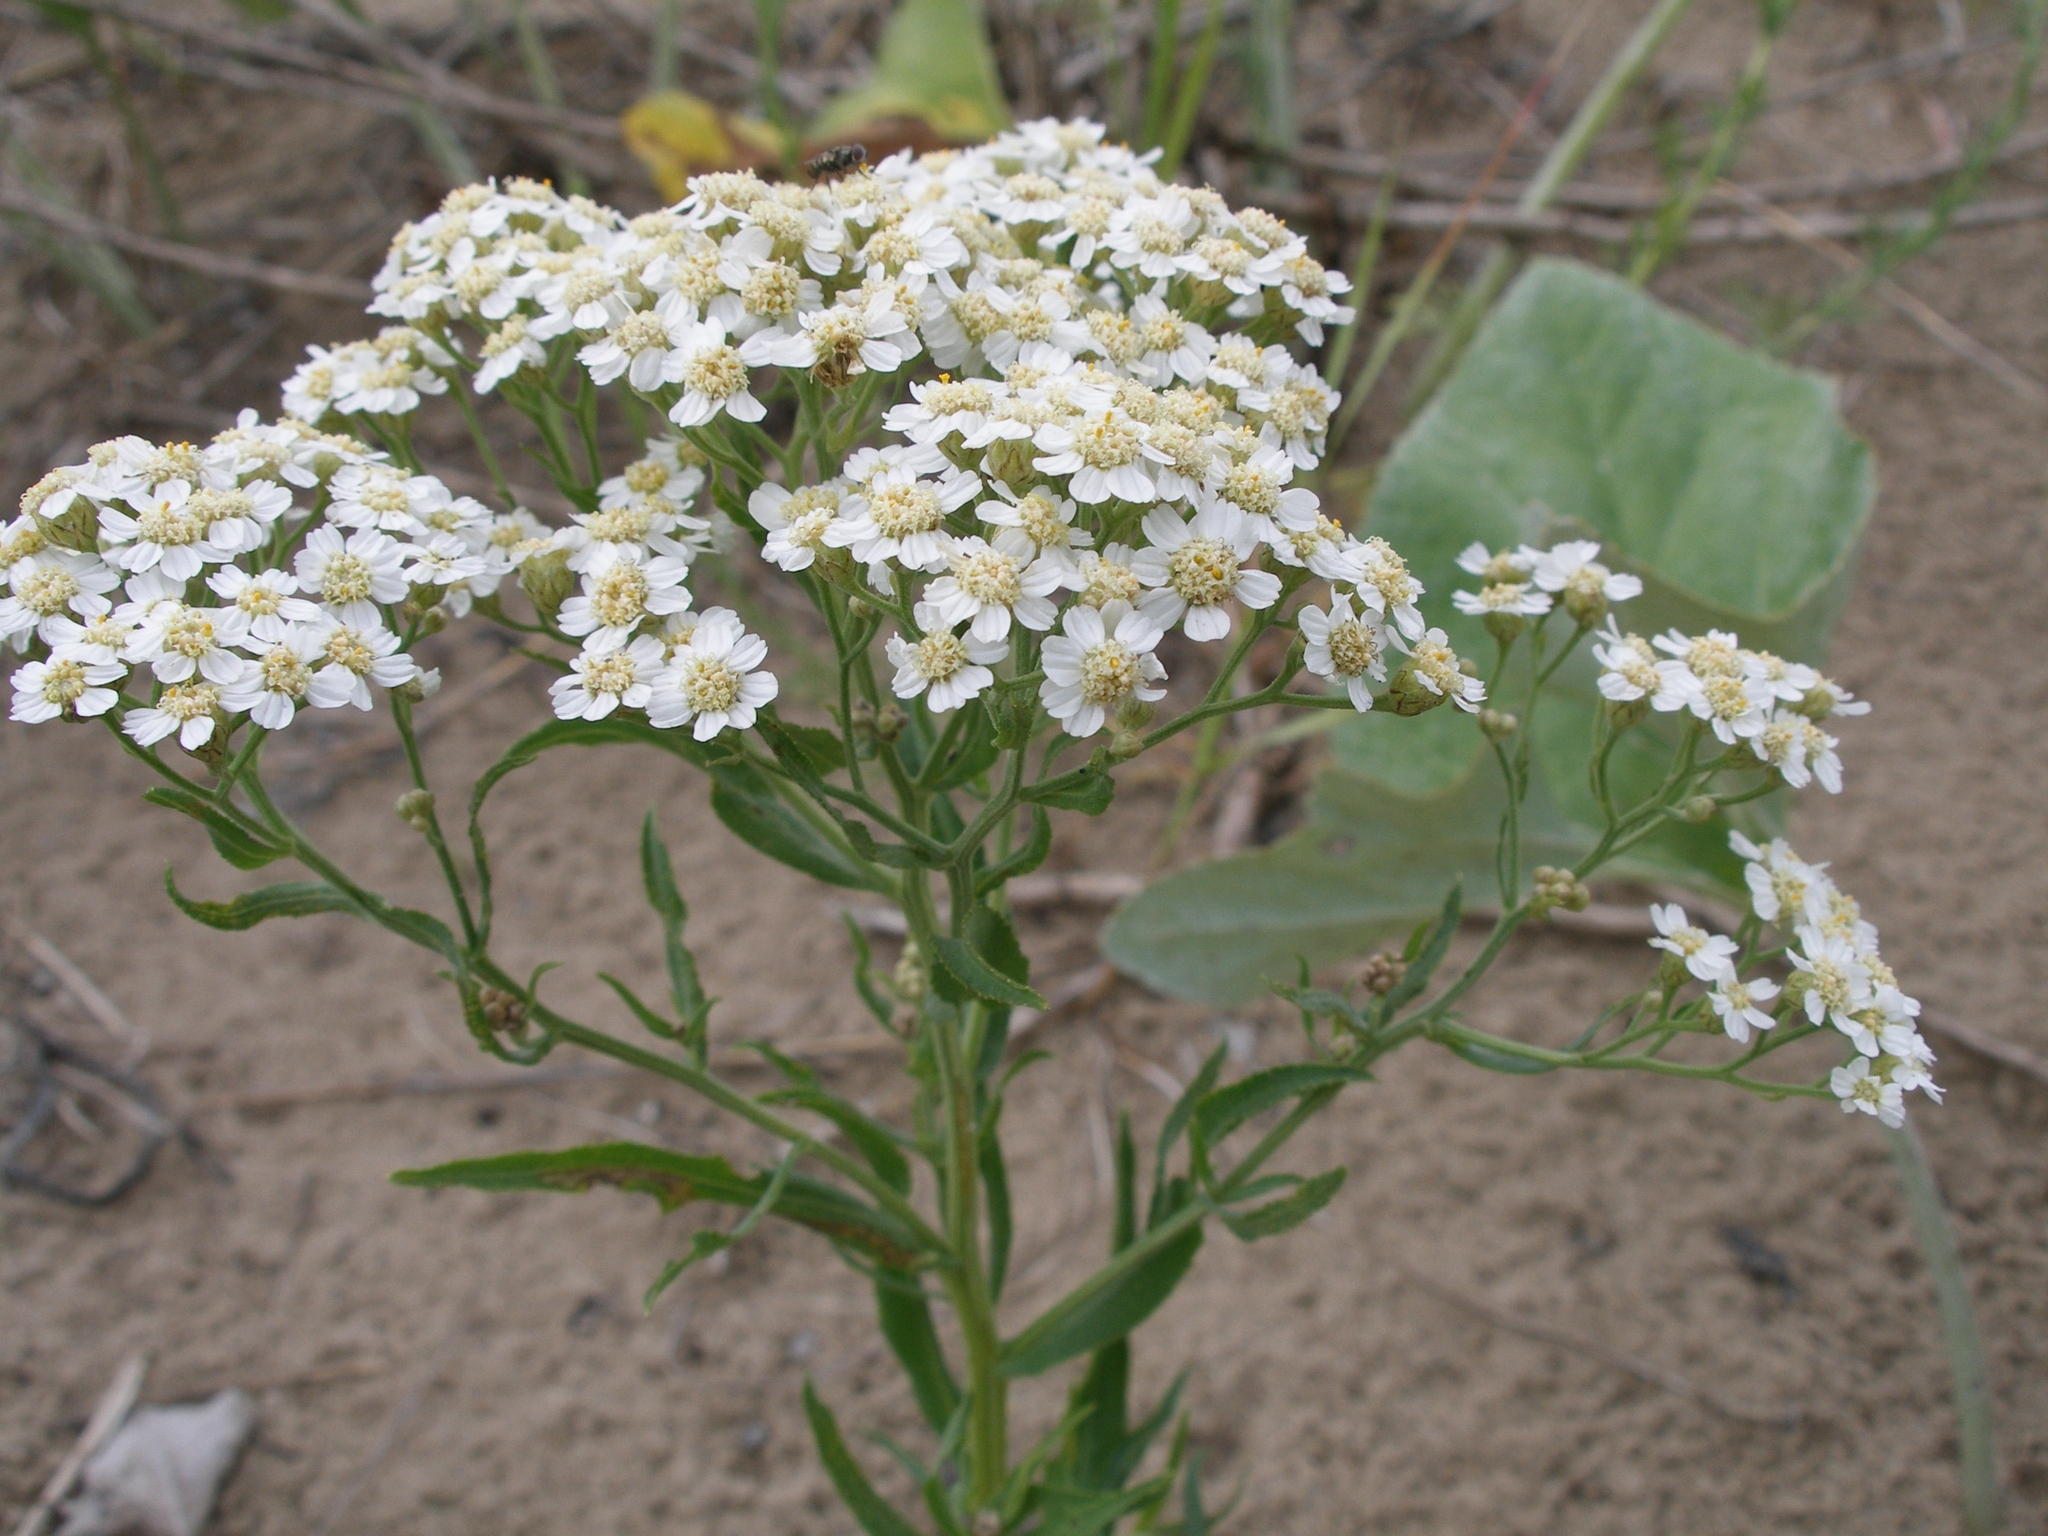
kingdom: Plantae
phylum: Tracheophyta
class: Magnoliopsida
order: Asterales
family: Asteraceae
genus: Achillea
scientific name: Achillea salicifolia
